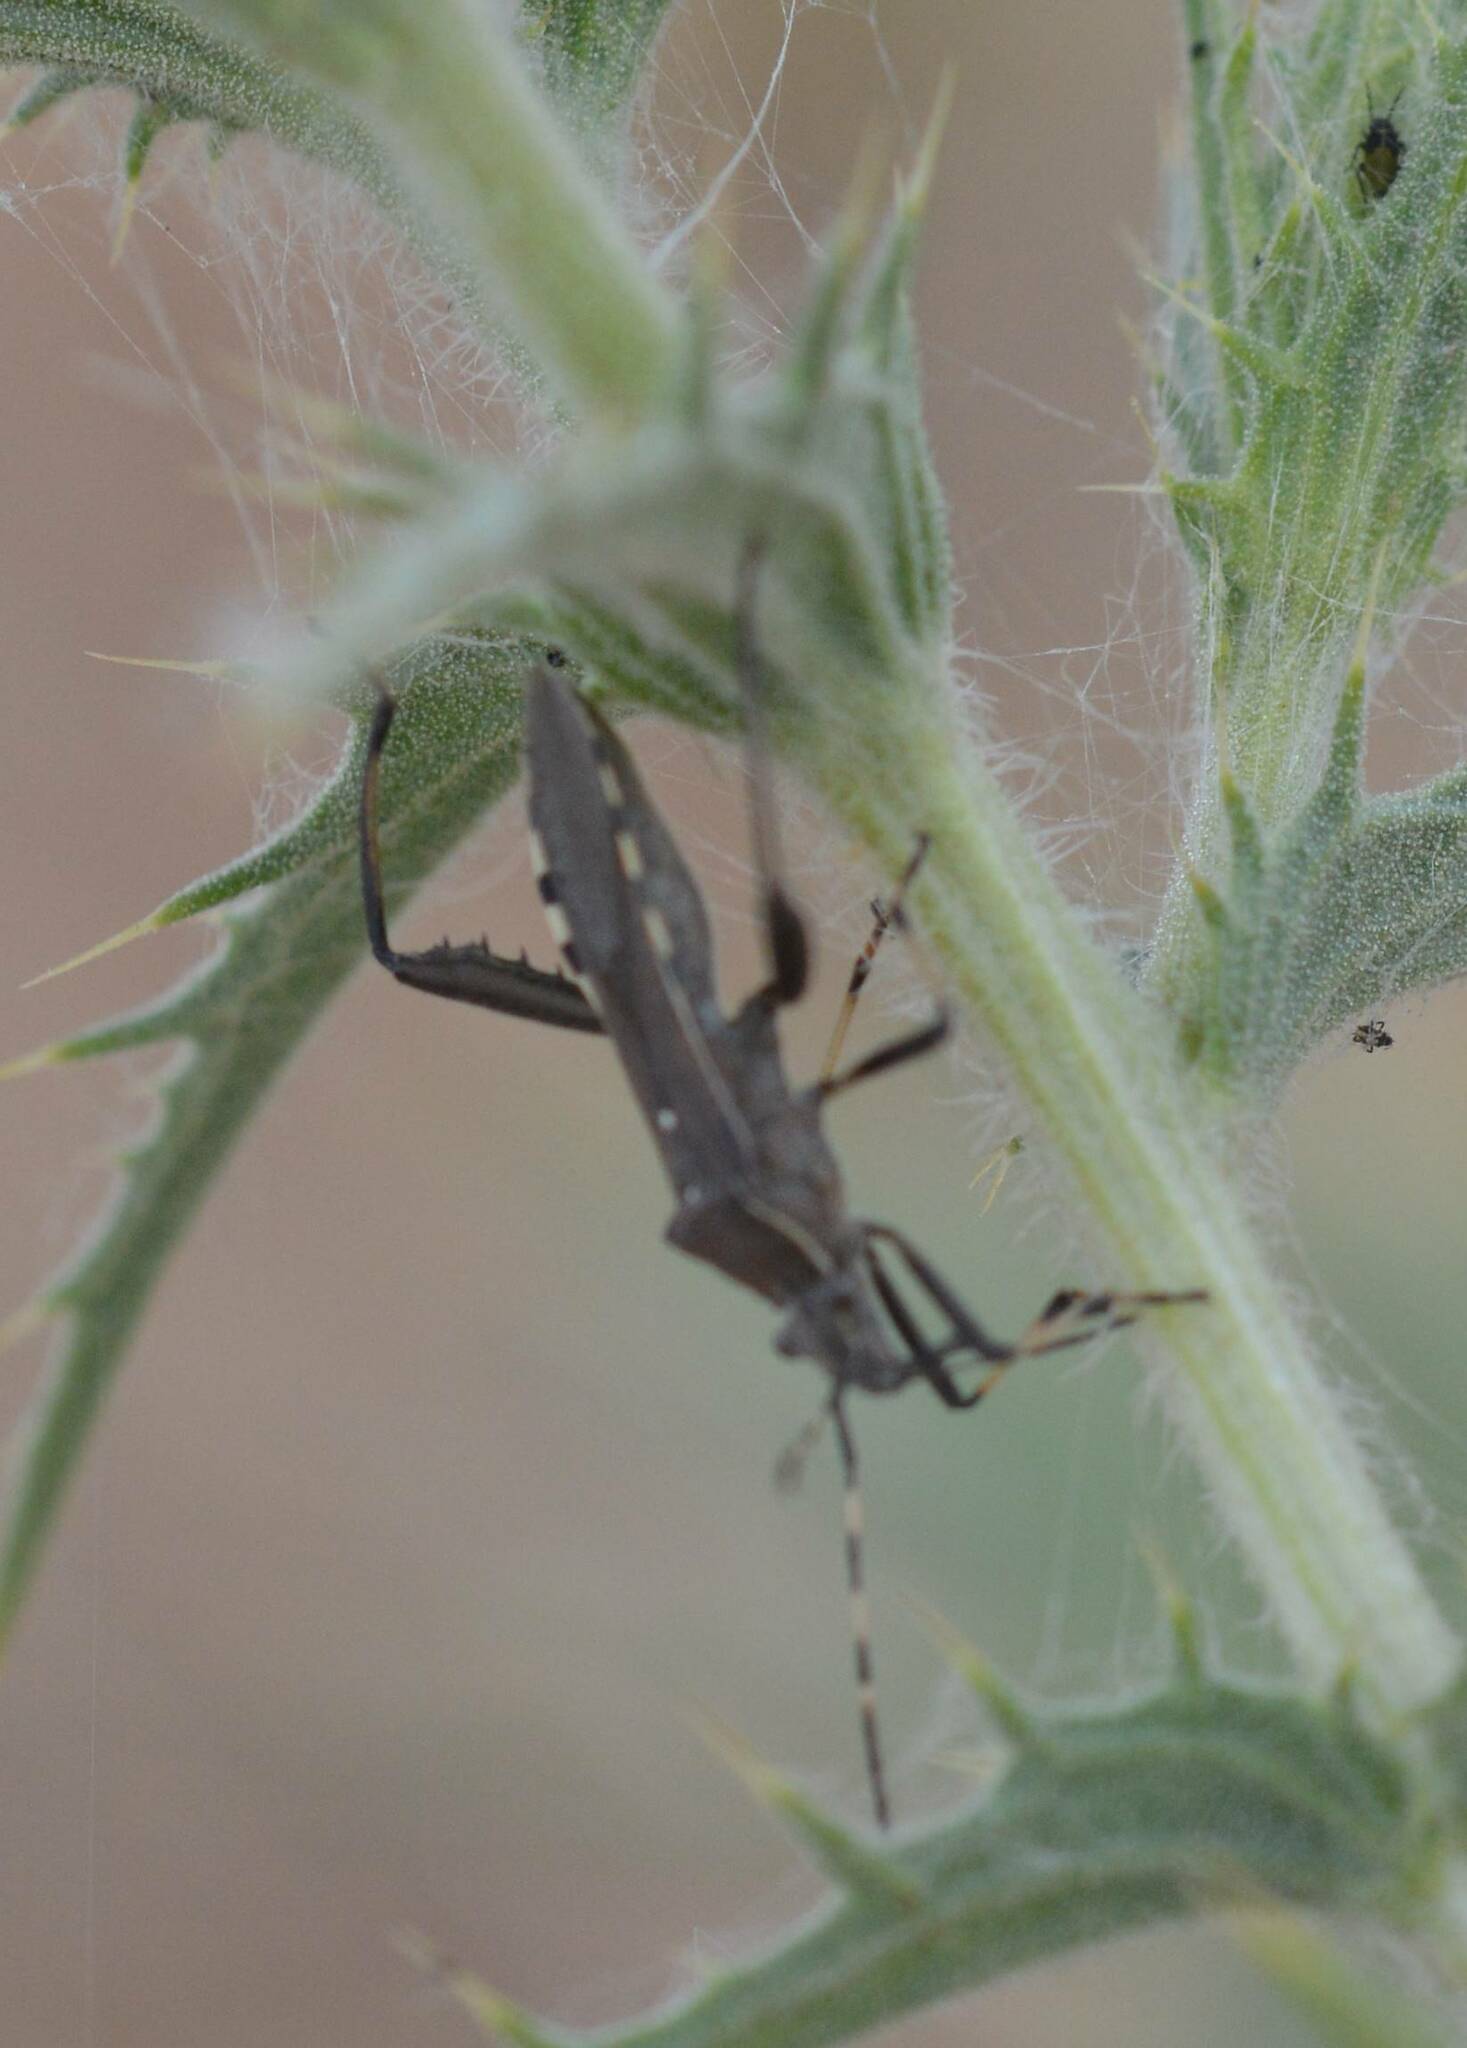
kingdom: Animalia
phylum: Arthropoda
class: Insecta
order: Hemiptera
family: Alydidae
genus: Camptopus
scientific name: Camptopus lateralis
